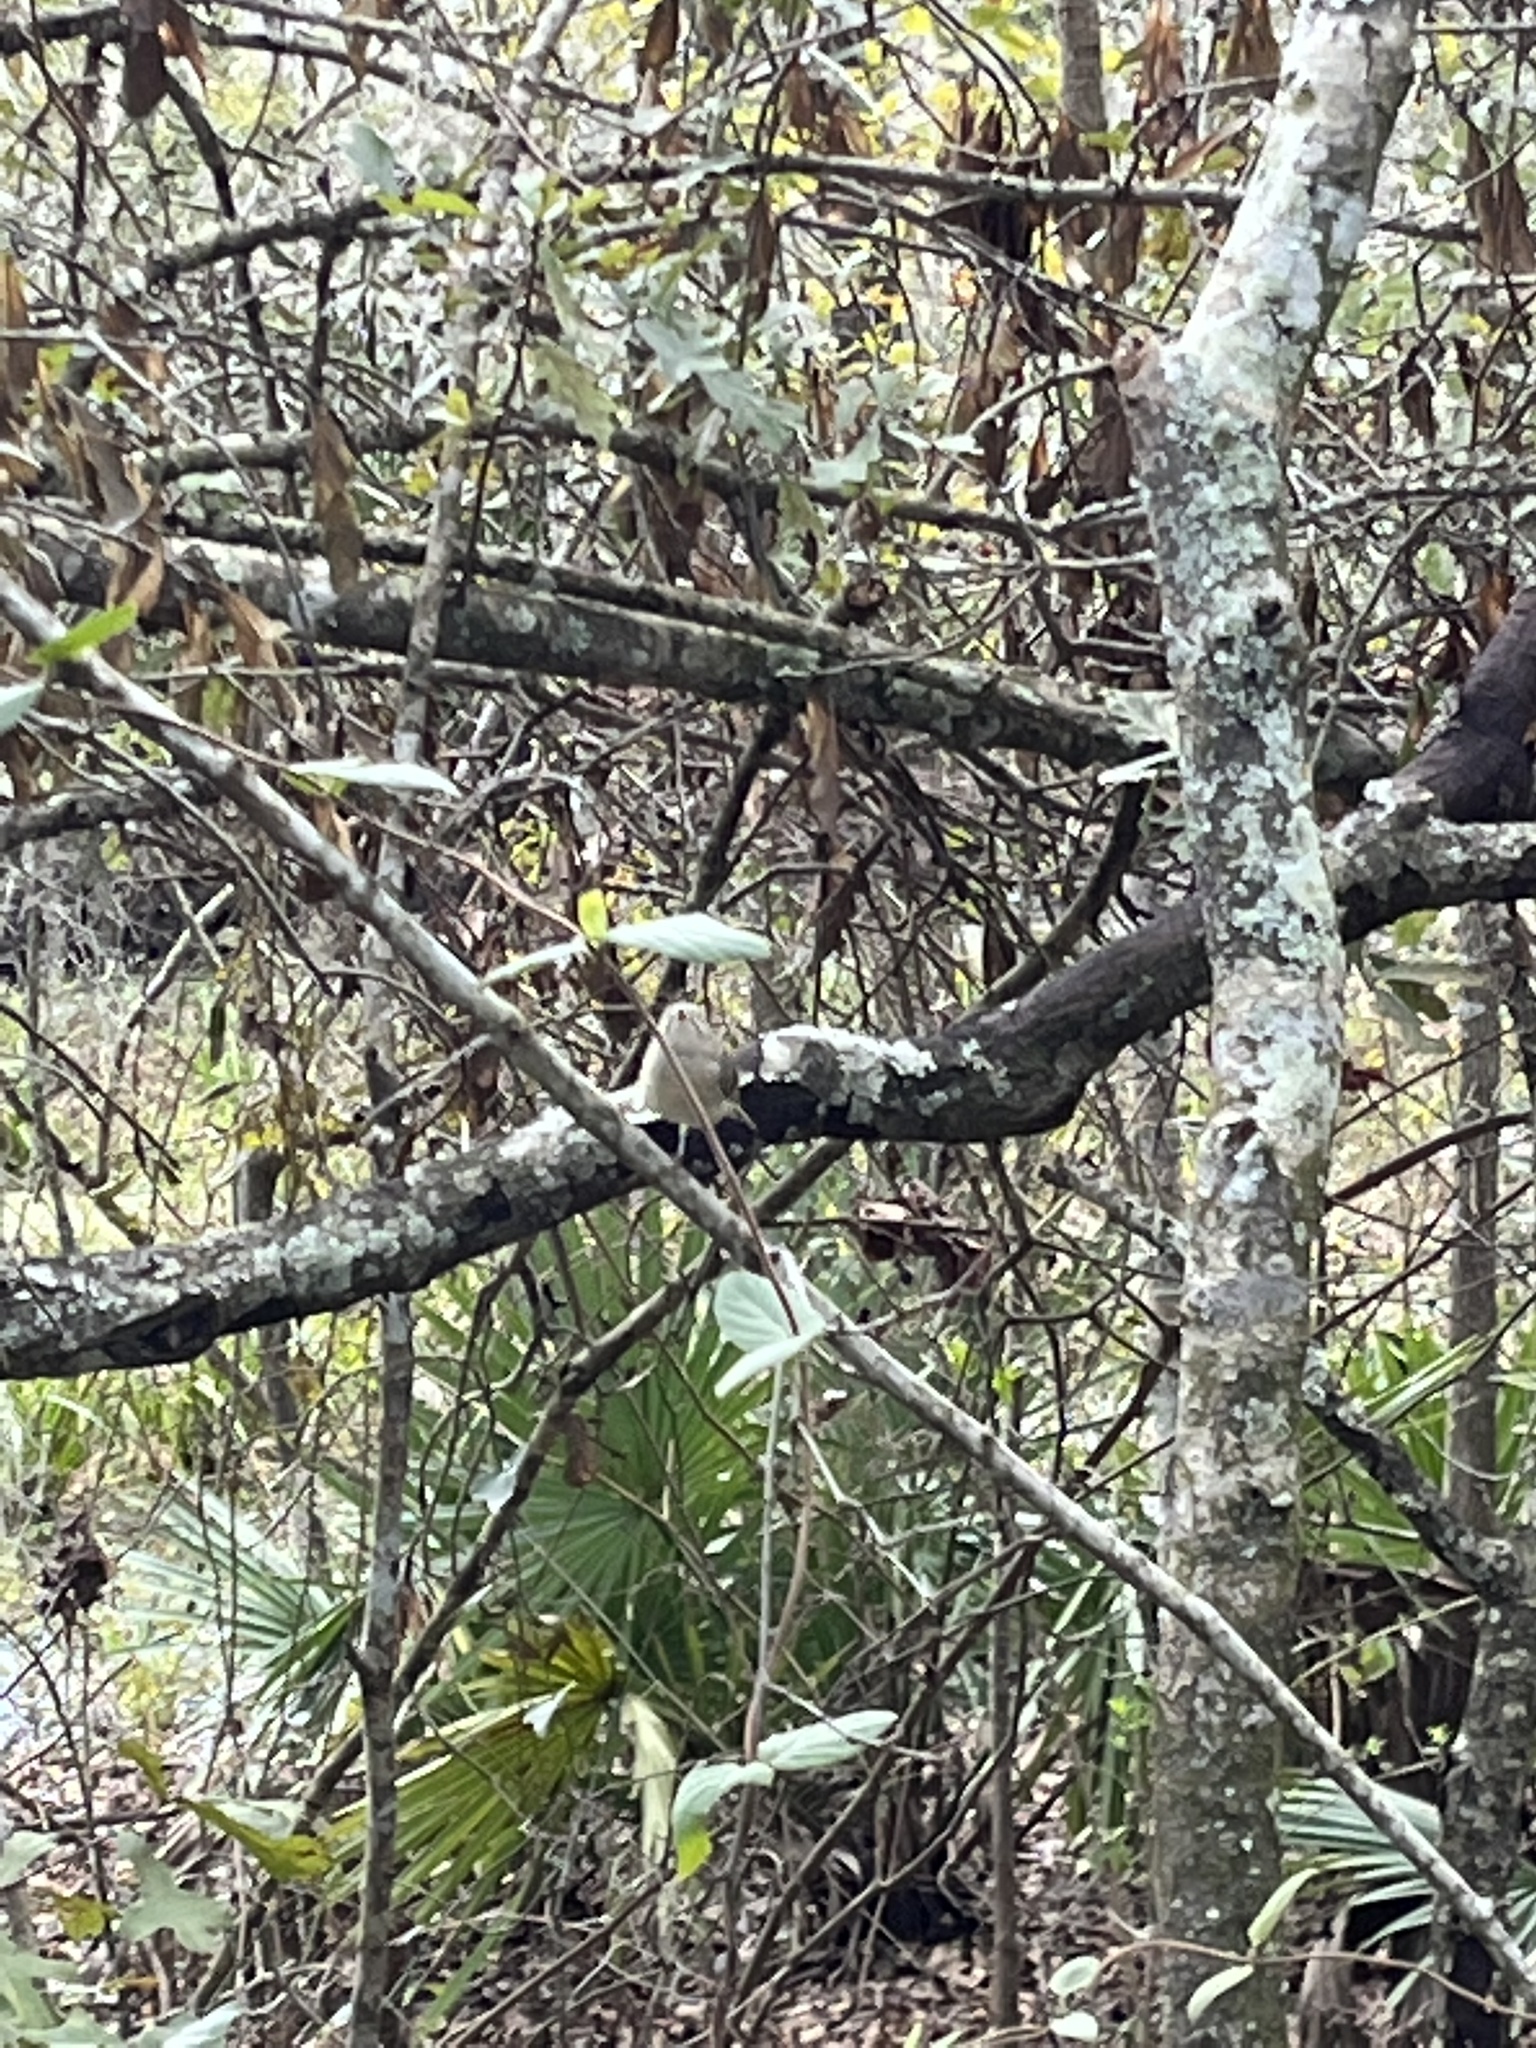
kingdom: Animalia
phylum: Chordata
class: Aves
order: Passeriformes
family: Regulidae
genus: Regulus
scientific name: Regulus calendula
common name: Ruby-crowned kinglet
